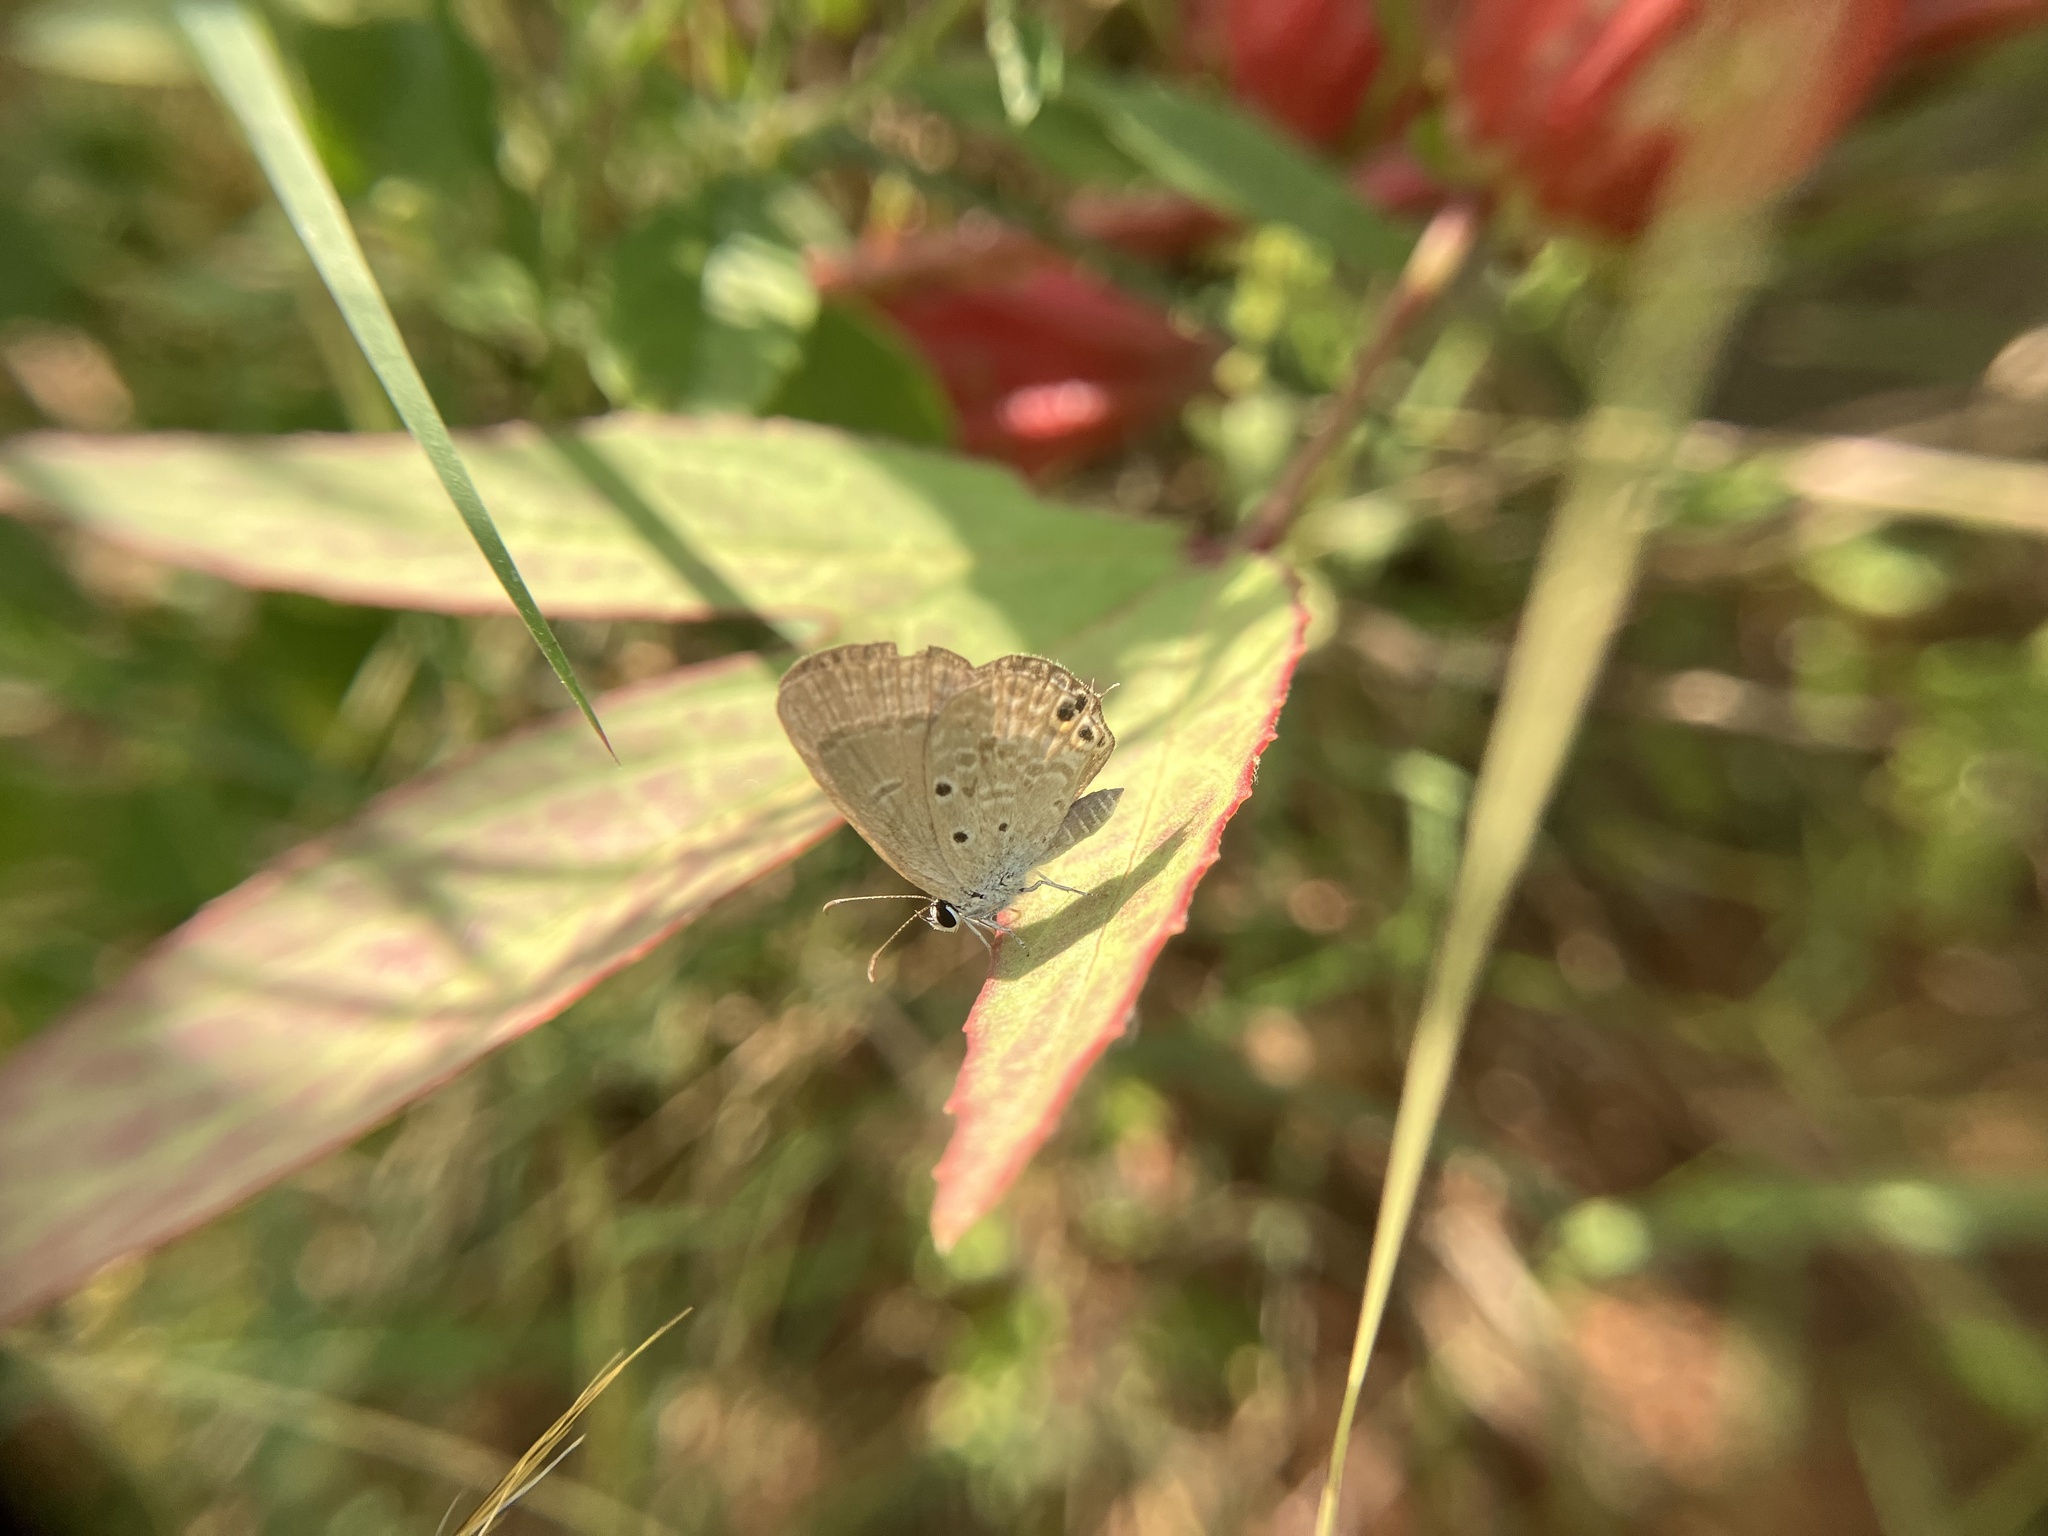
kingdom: Animalia
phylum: Arthropoda
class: Insecta
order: Lepidoptera
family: Lycaenidae
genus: Euchrysops
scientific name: Euchrysops cnejus
